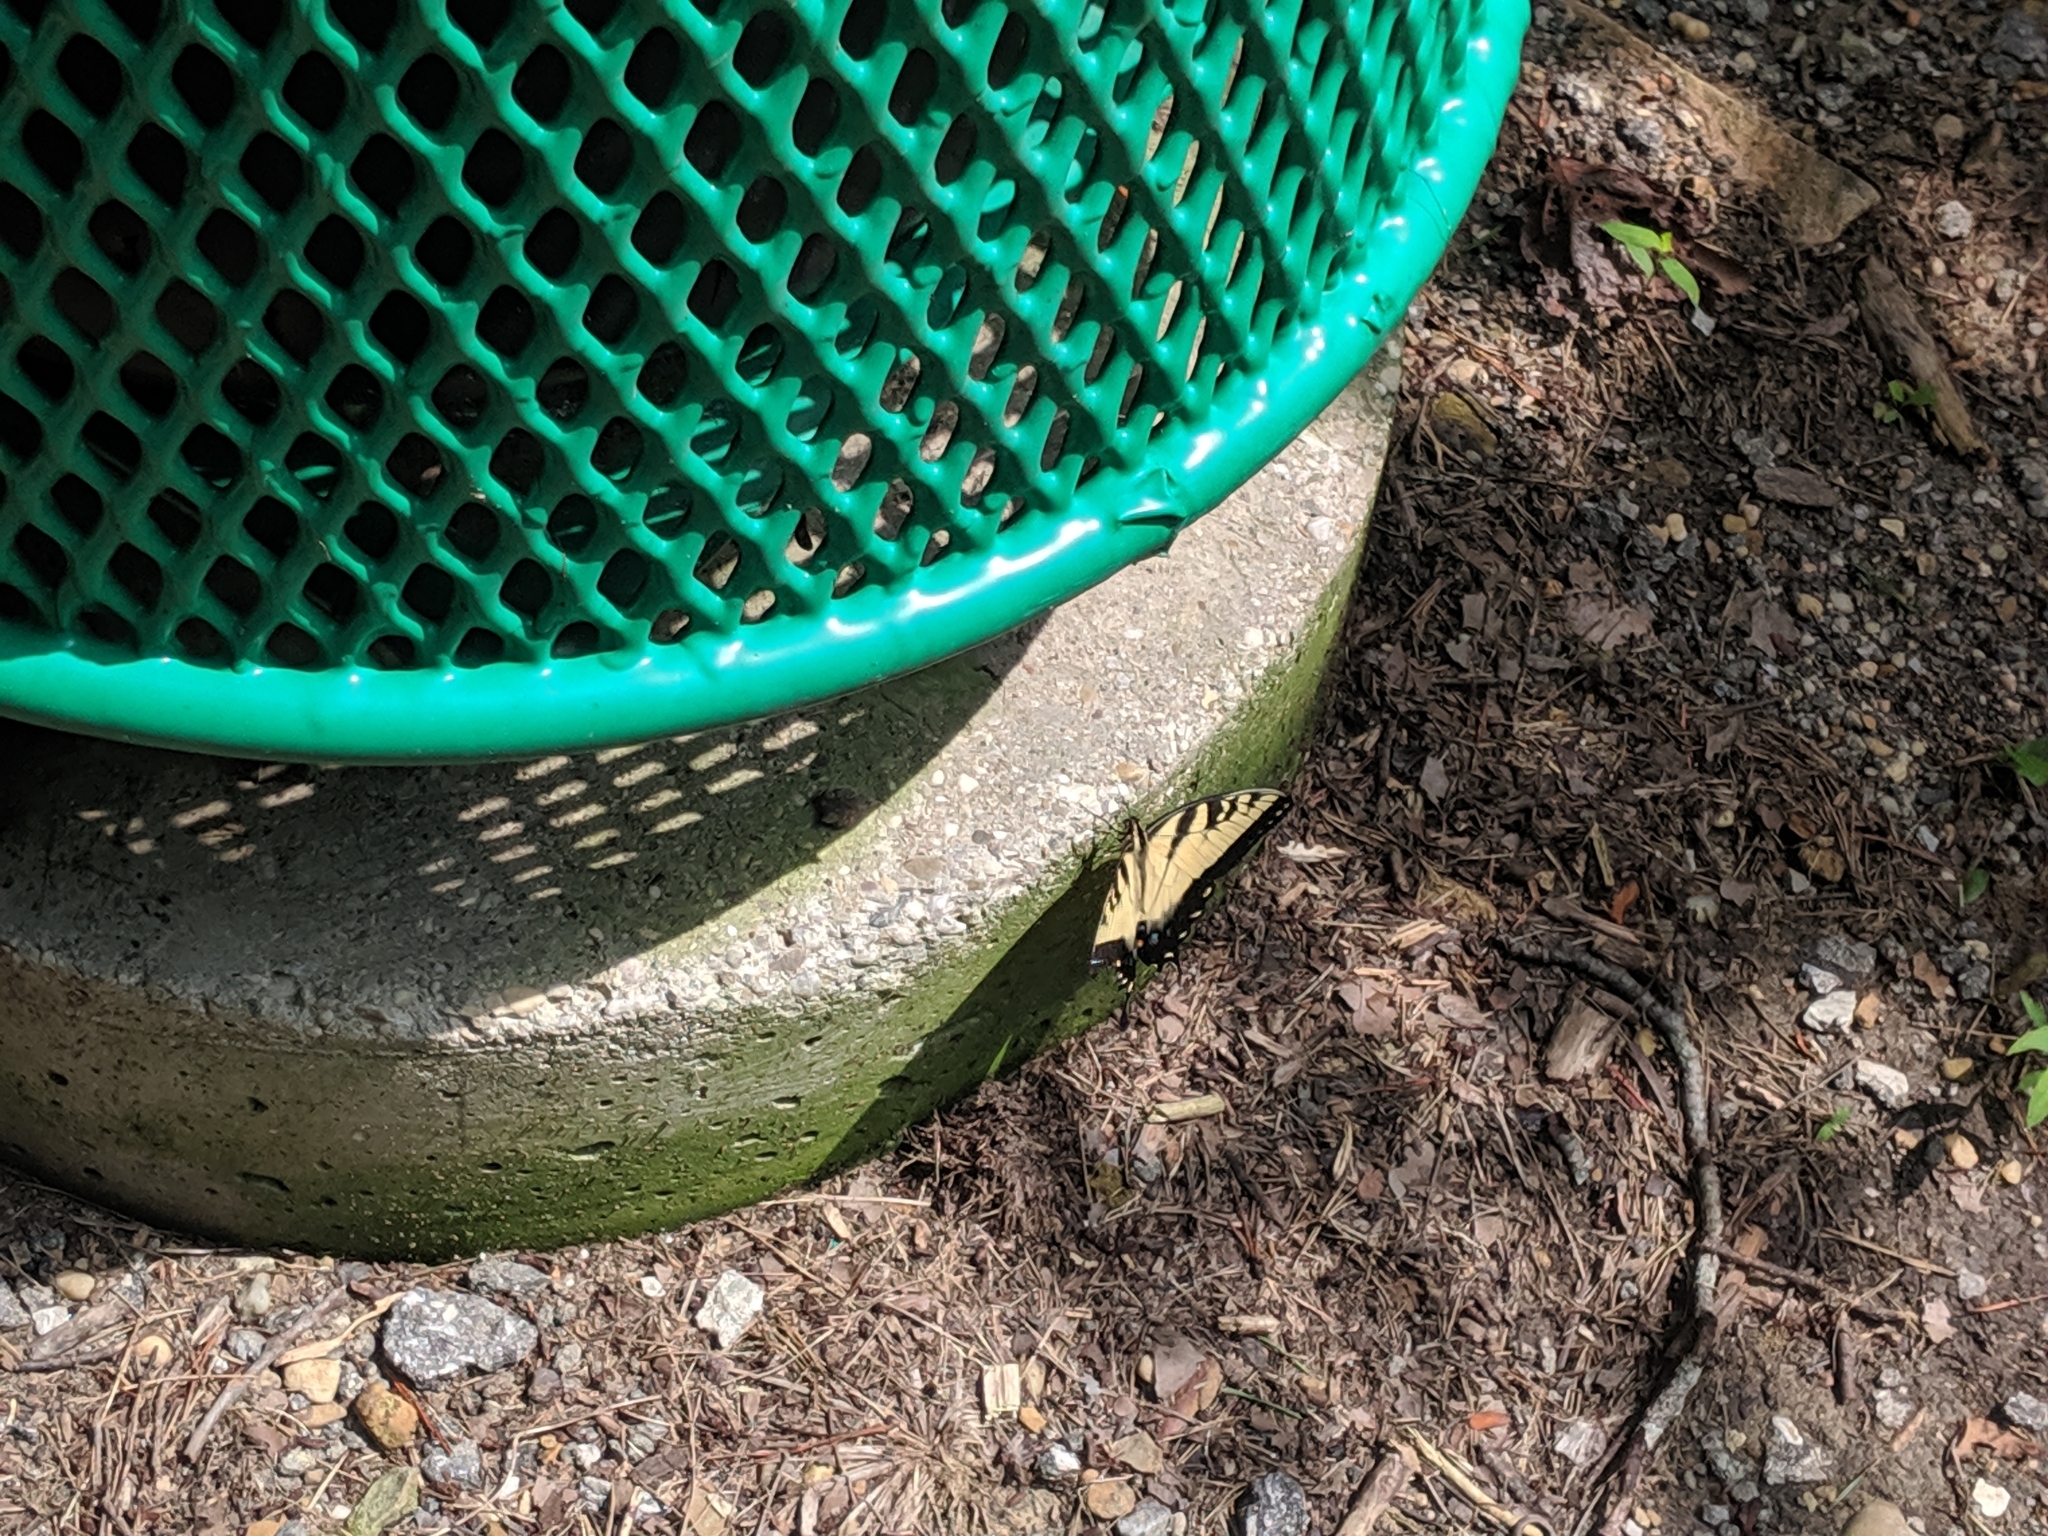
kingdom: Animalia
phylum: Arthropoda
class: Insecta
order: Lepidoptera
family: Papilionidae
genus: Papilio
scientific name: Papilio glaucus
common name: Tiger swallowtail
